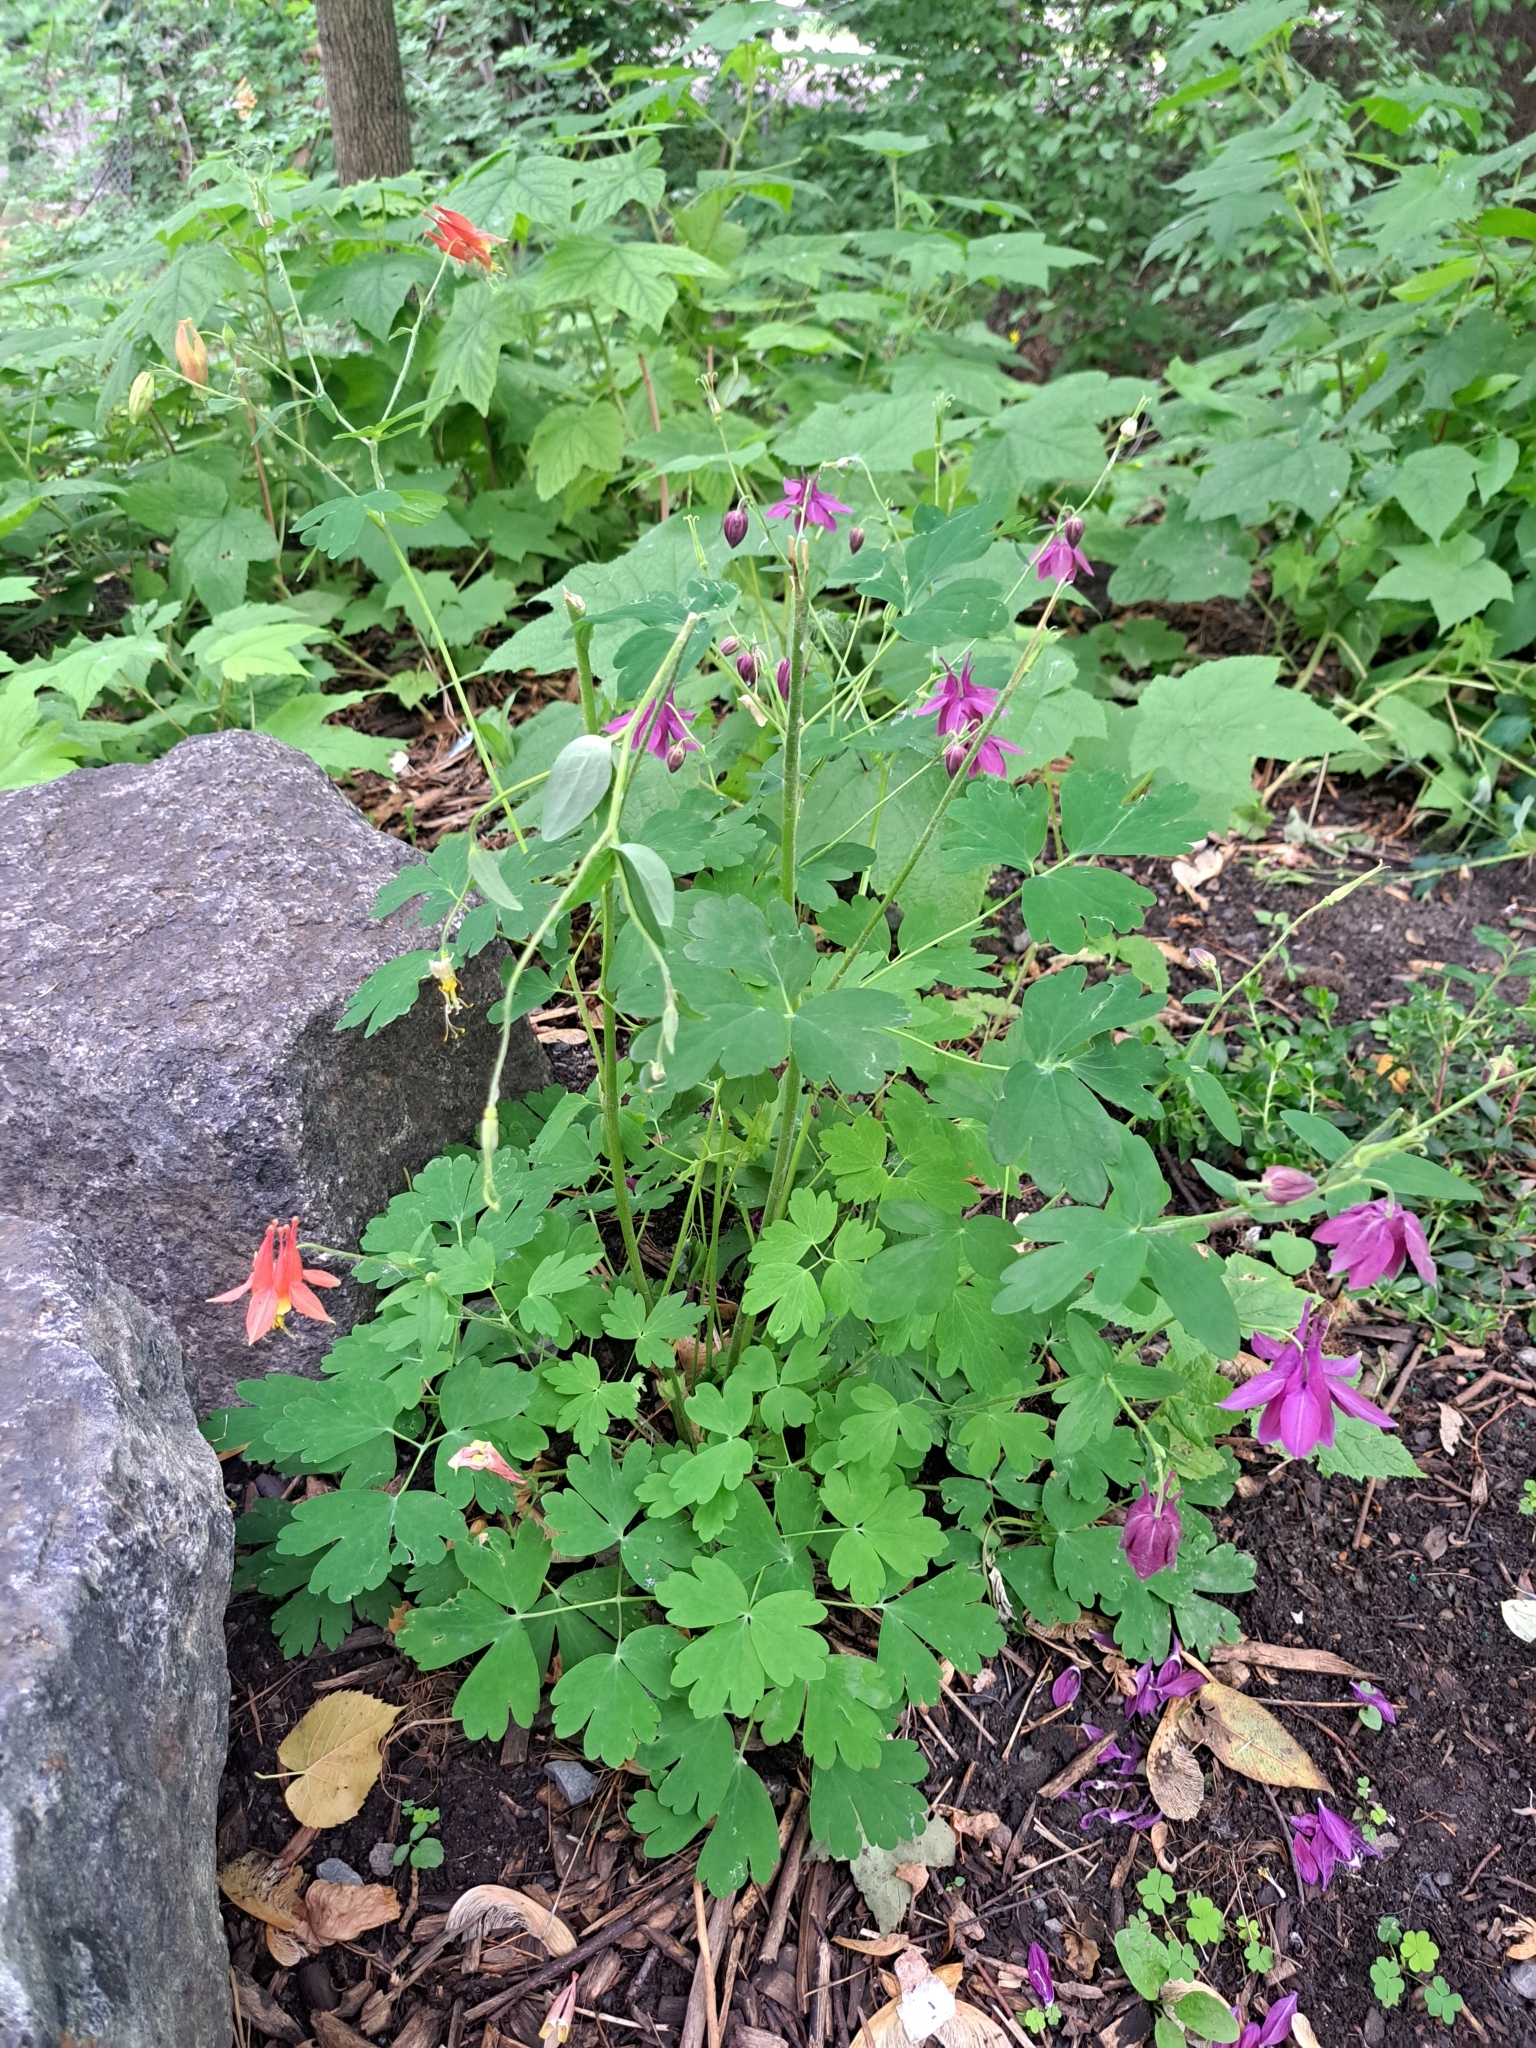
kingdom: Plantae
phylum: Tracheophyta
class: Magnoliopsida
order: Ranunculales
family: Ranunculaceae
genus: Aquilegia
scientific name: Aquilegia canadensis
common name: American columbine
